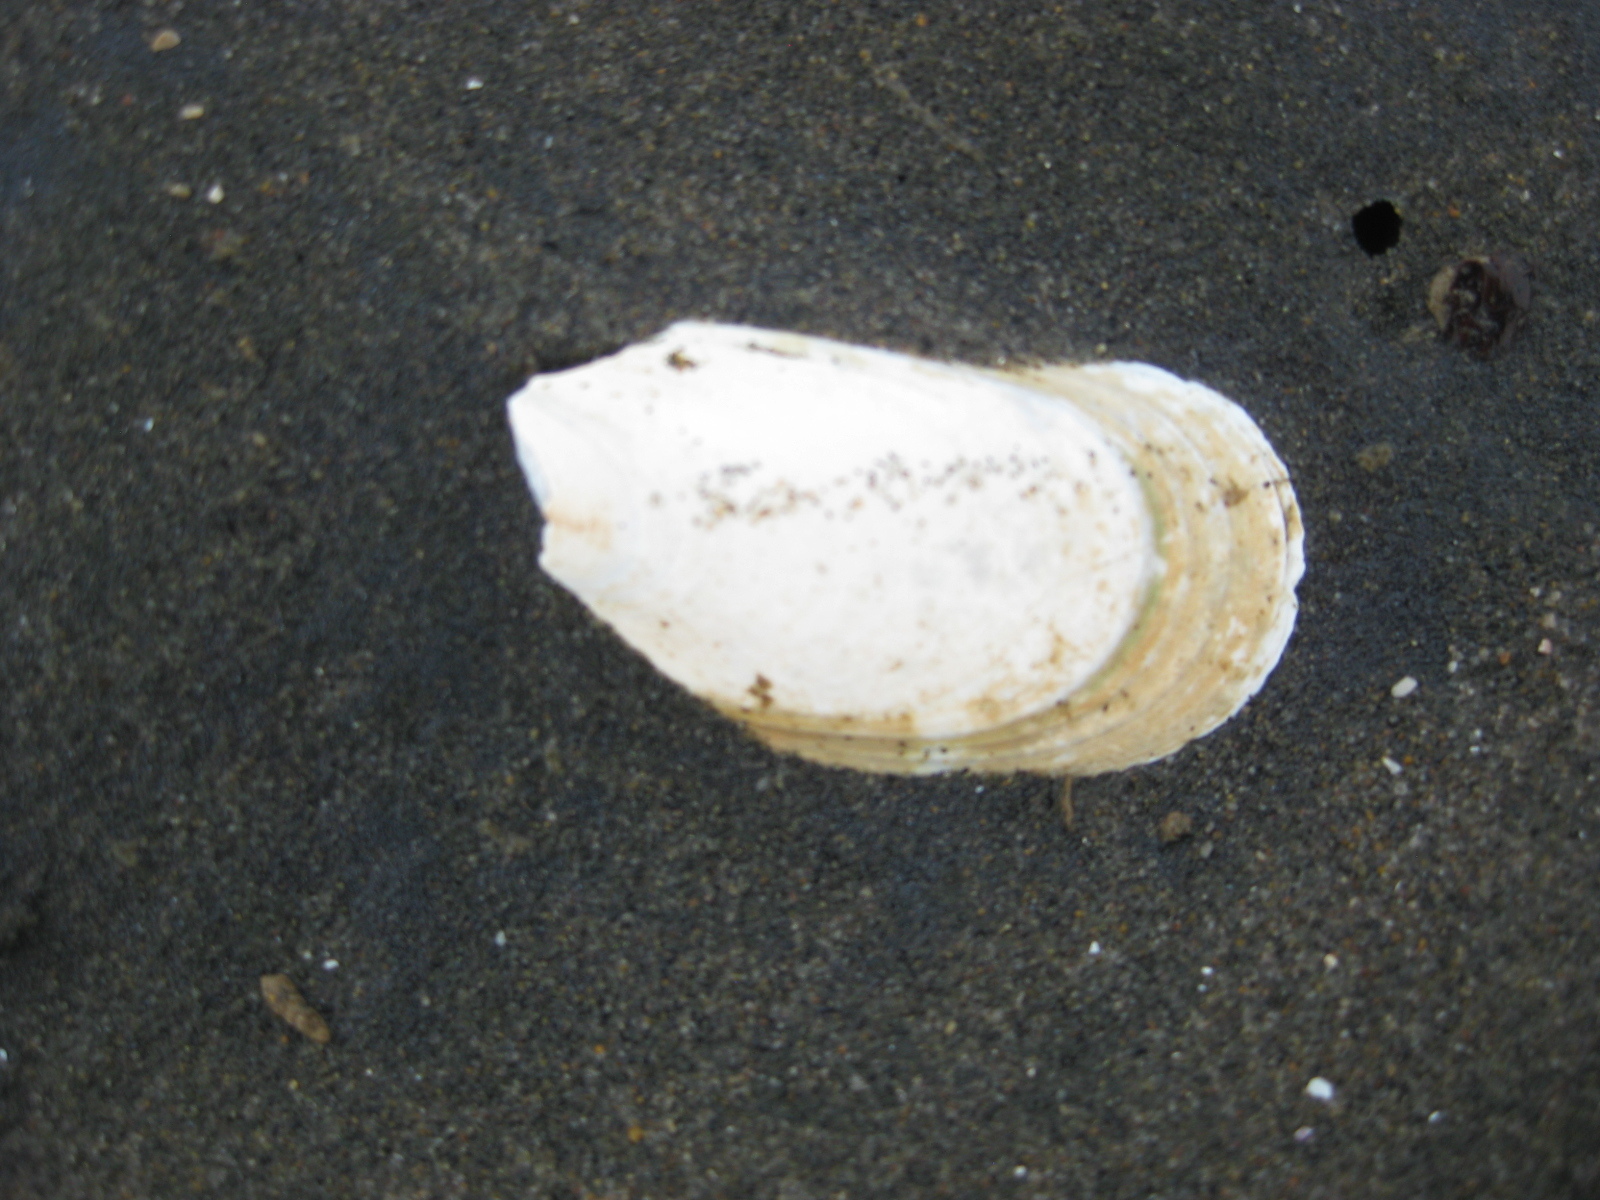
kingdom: Animalia
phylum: Mollusca
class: Bivalvia
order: Mytilida
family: Mytilidae
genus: Perna
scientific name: Perna canaliculus
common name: New zealand greenshelltm
